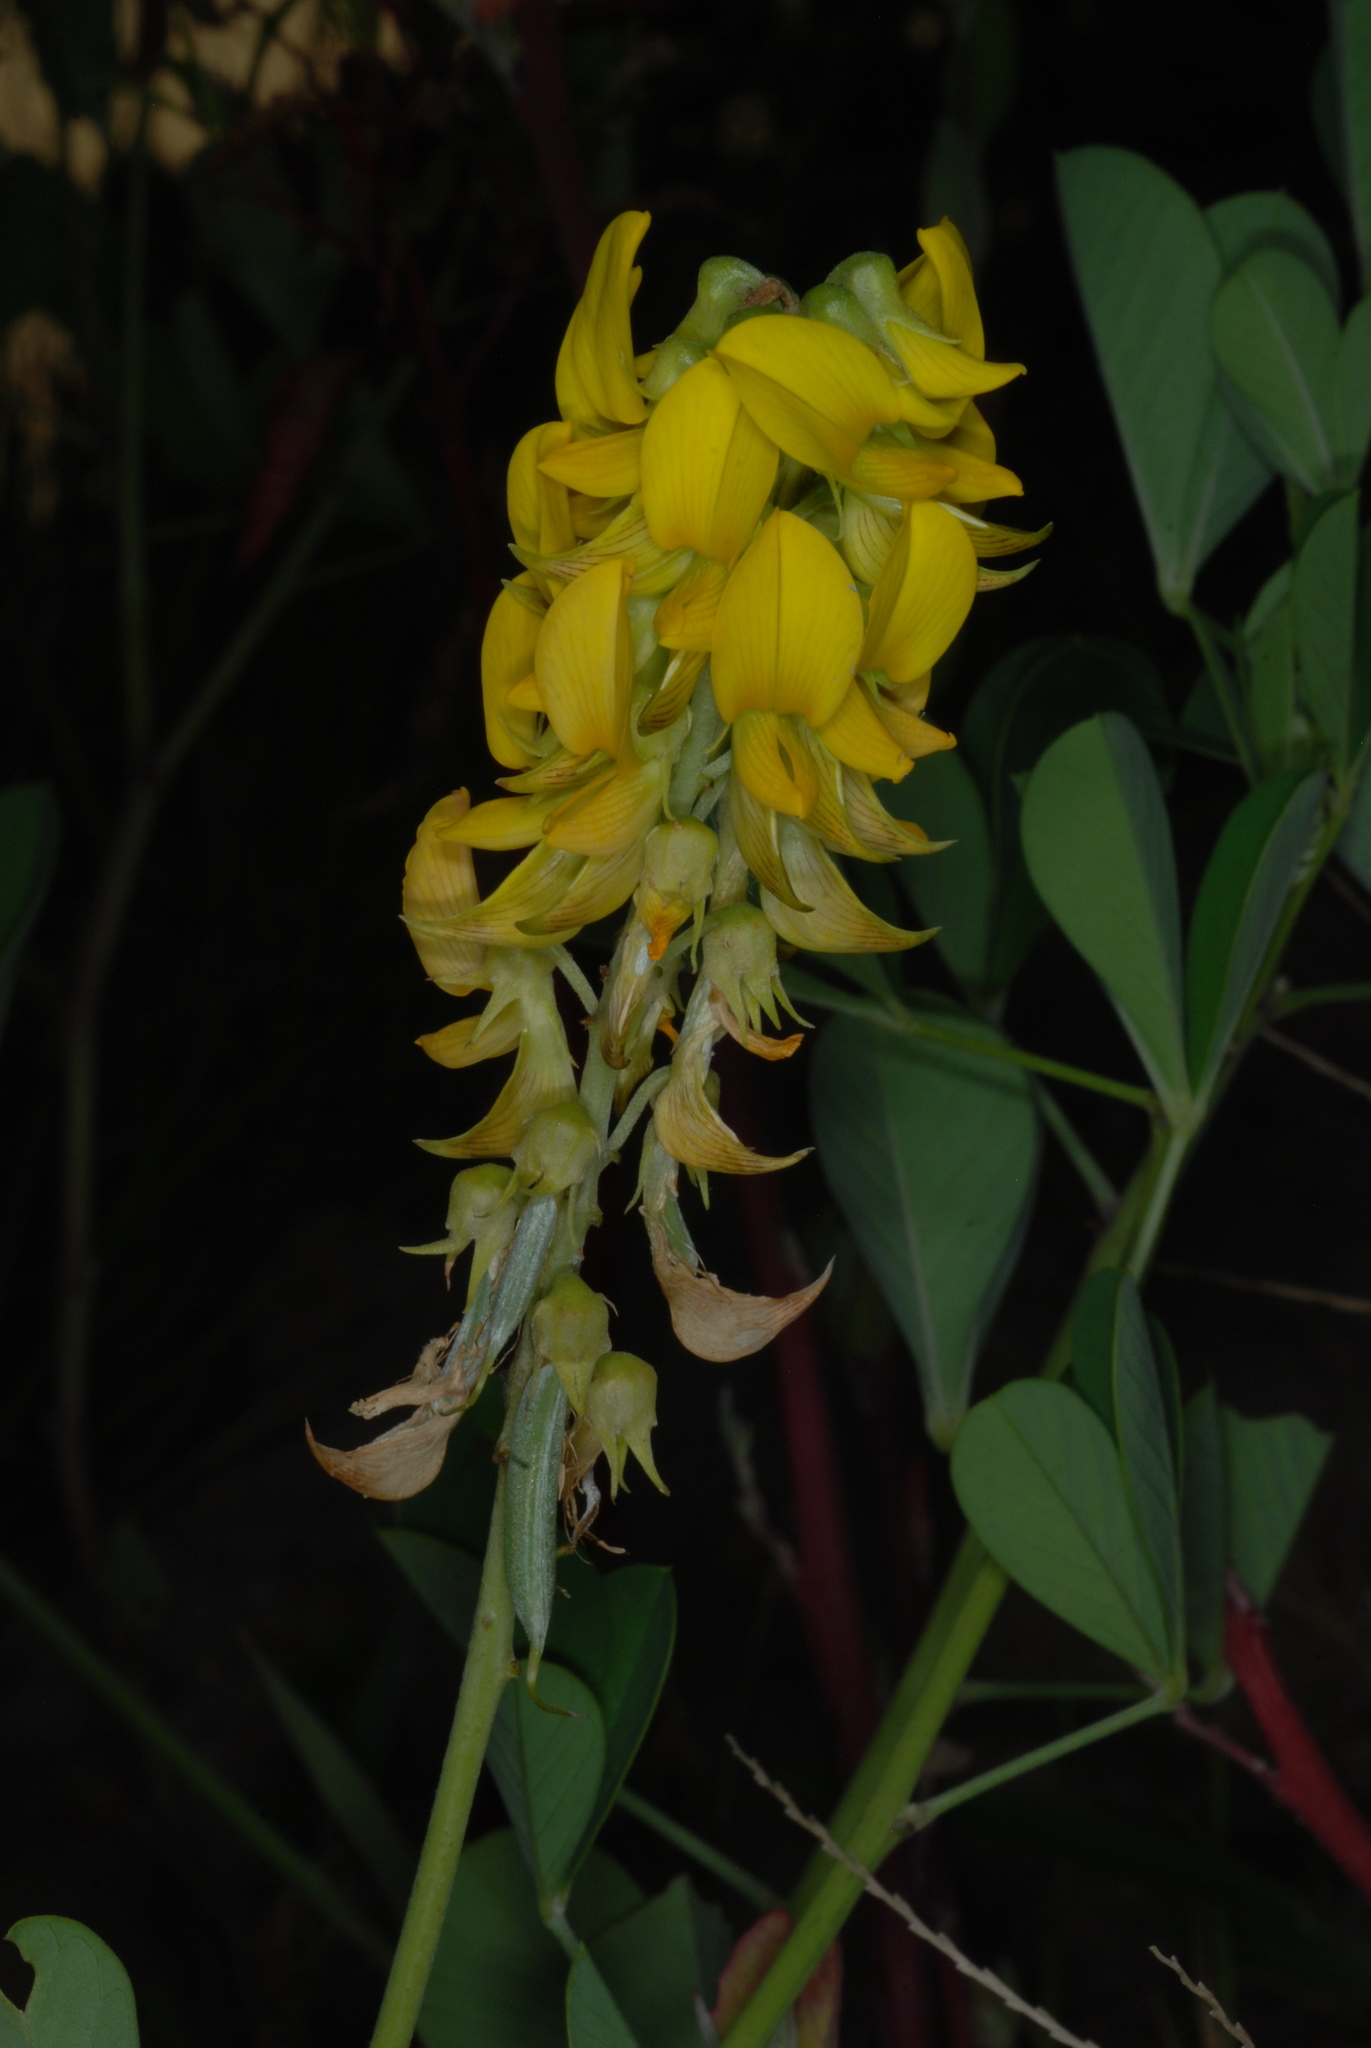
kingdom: Plantae
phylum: Tracheophyta
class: Magnoliopsida
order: Fabales
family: Fabaceae
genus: Crotalaria
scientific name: Crotalaria pallida
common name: Smooth rattlebox
